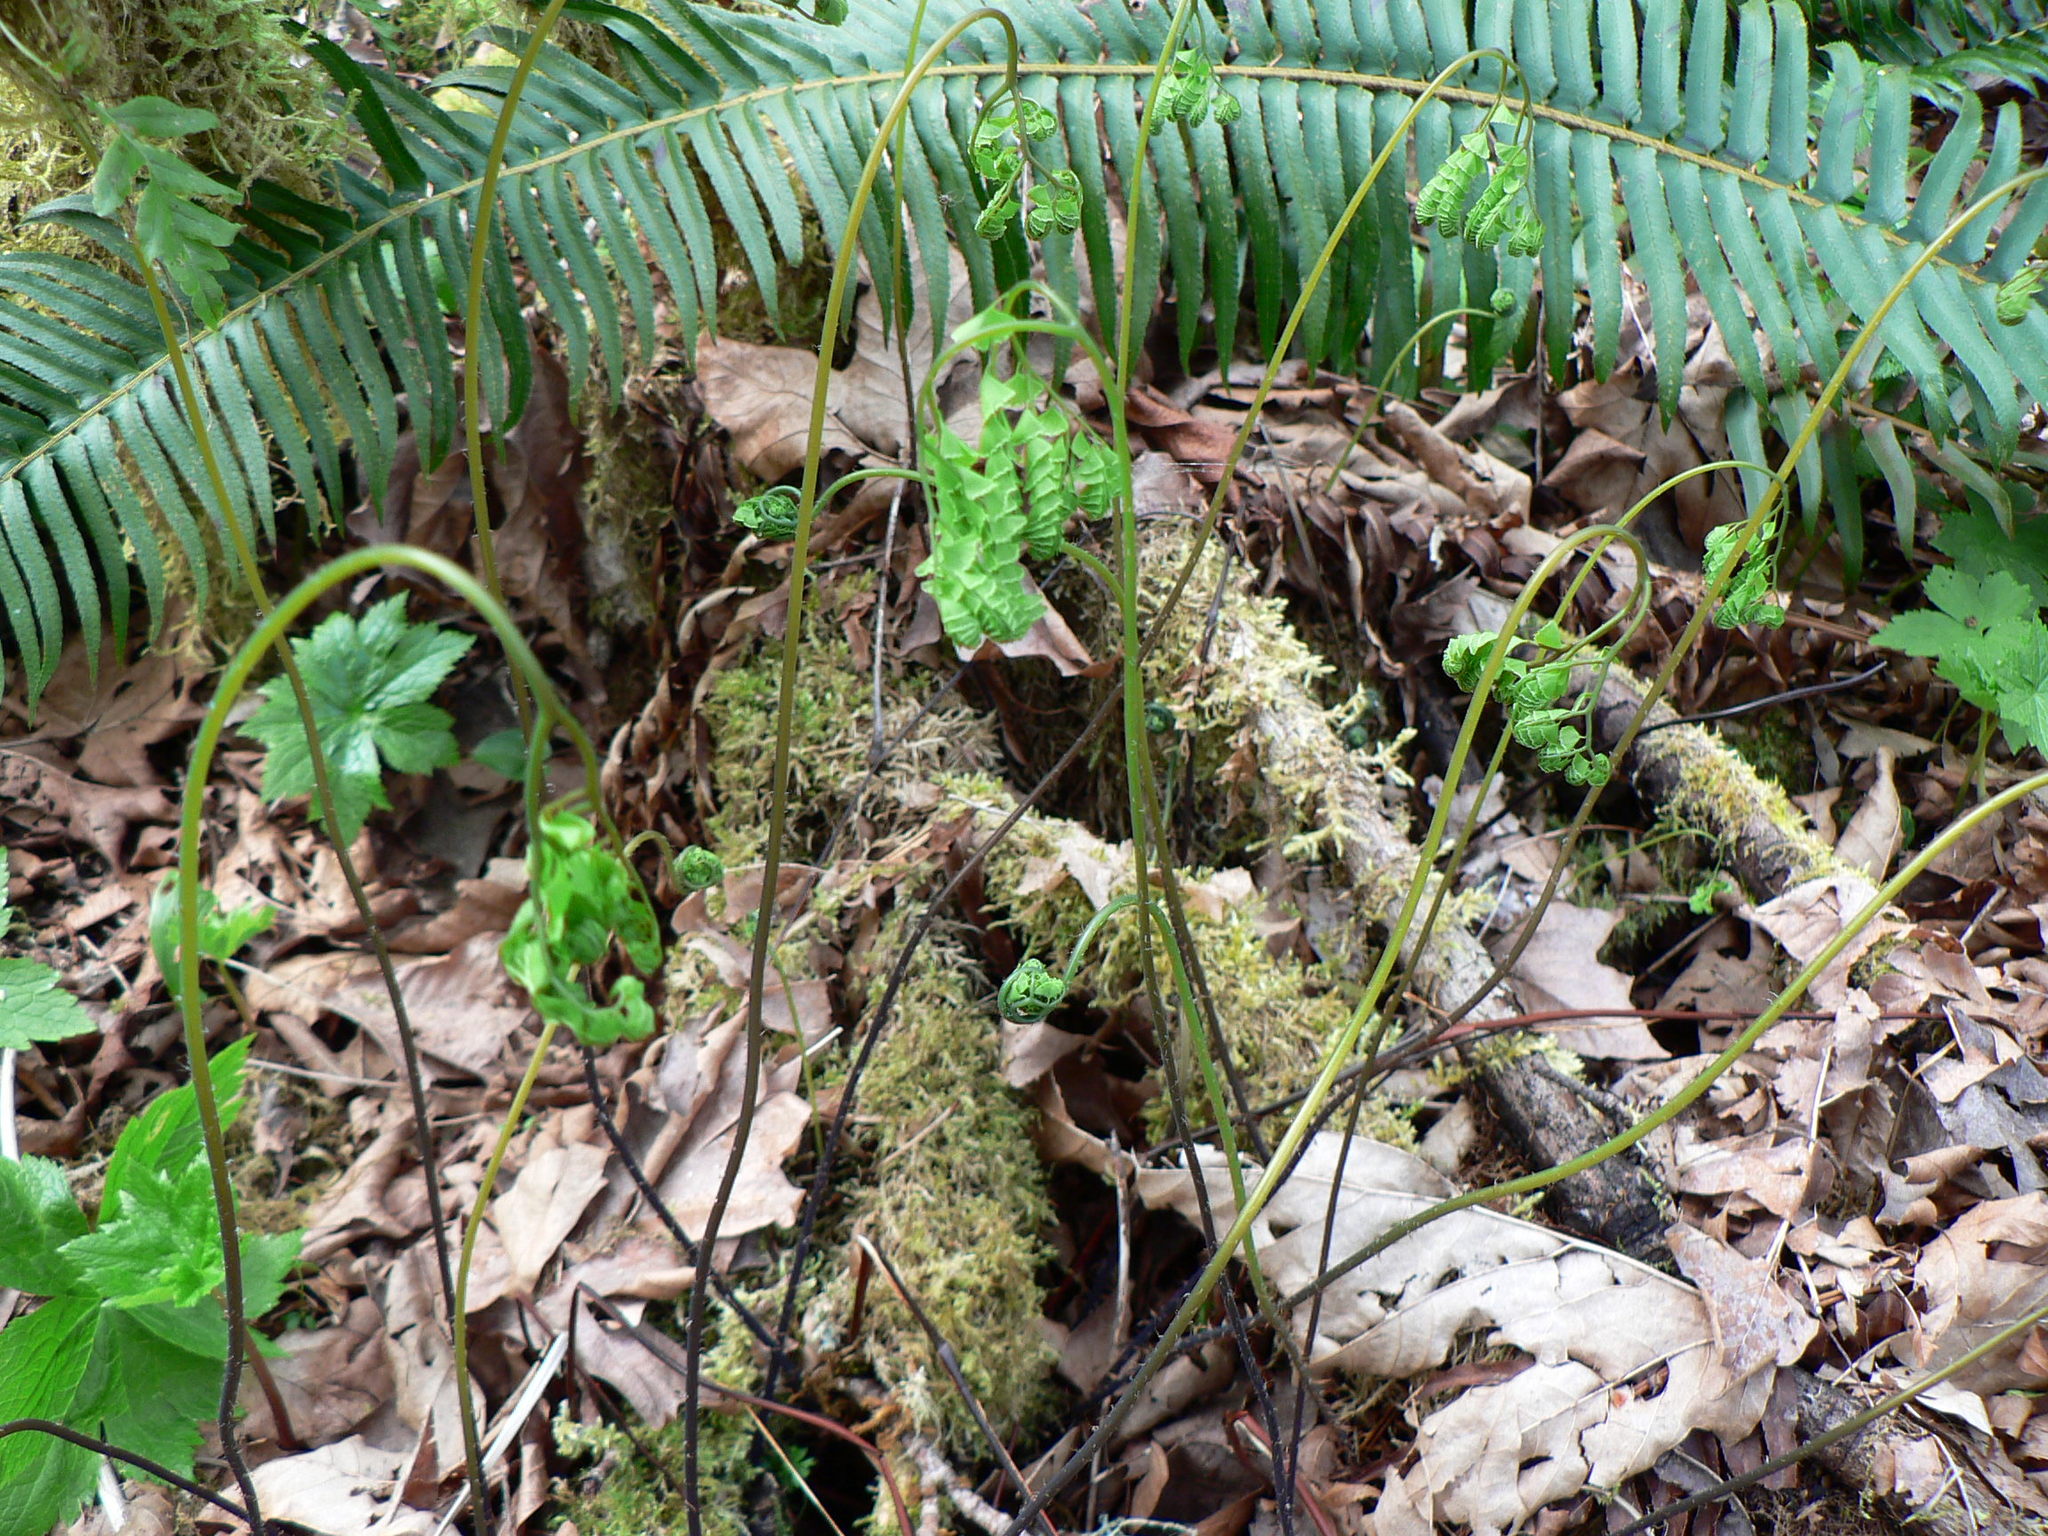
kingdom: Plantae
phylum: Tracheophyta
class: Polypodiopsida
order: Polypodiales
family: Pteridaceae
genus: Adiantum
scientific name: Adiantum aleuticum
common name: Aleutian maidenhair fern
